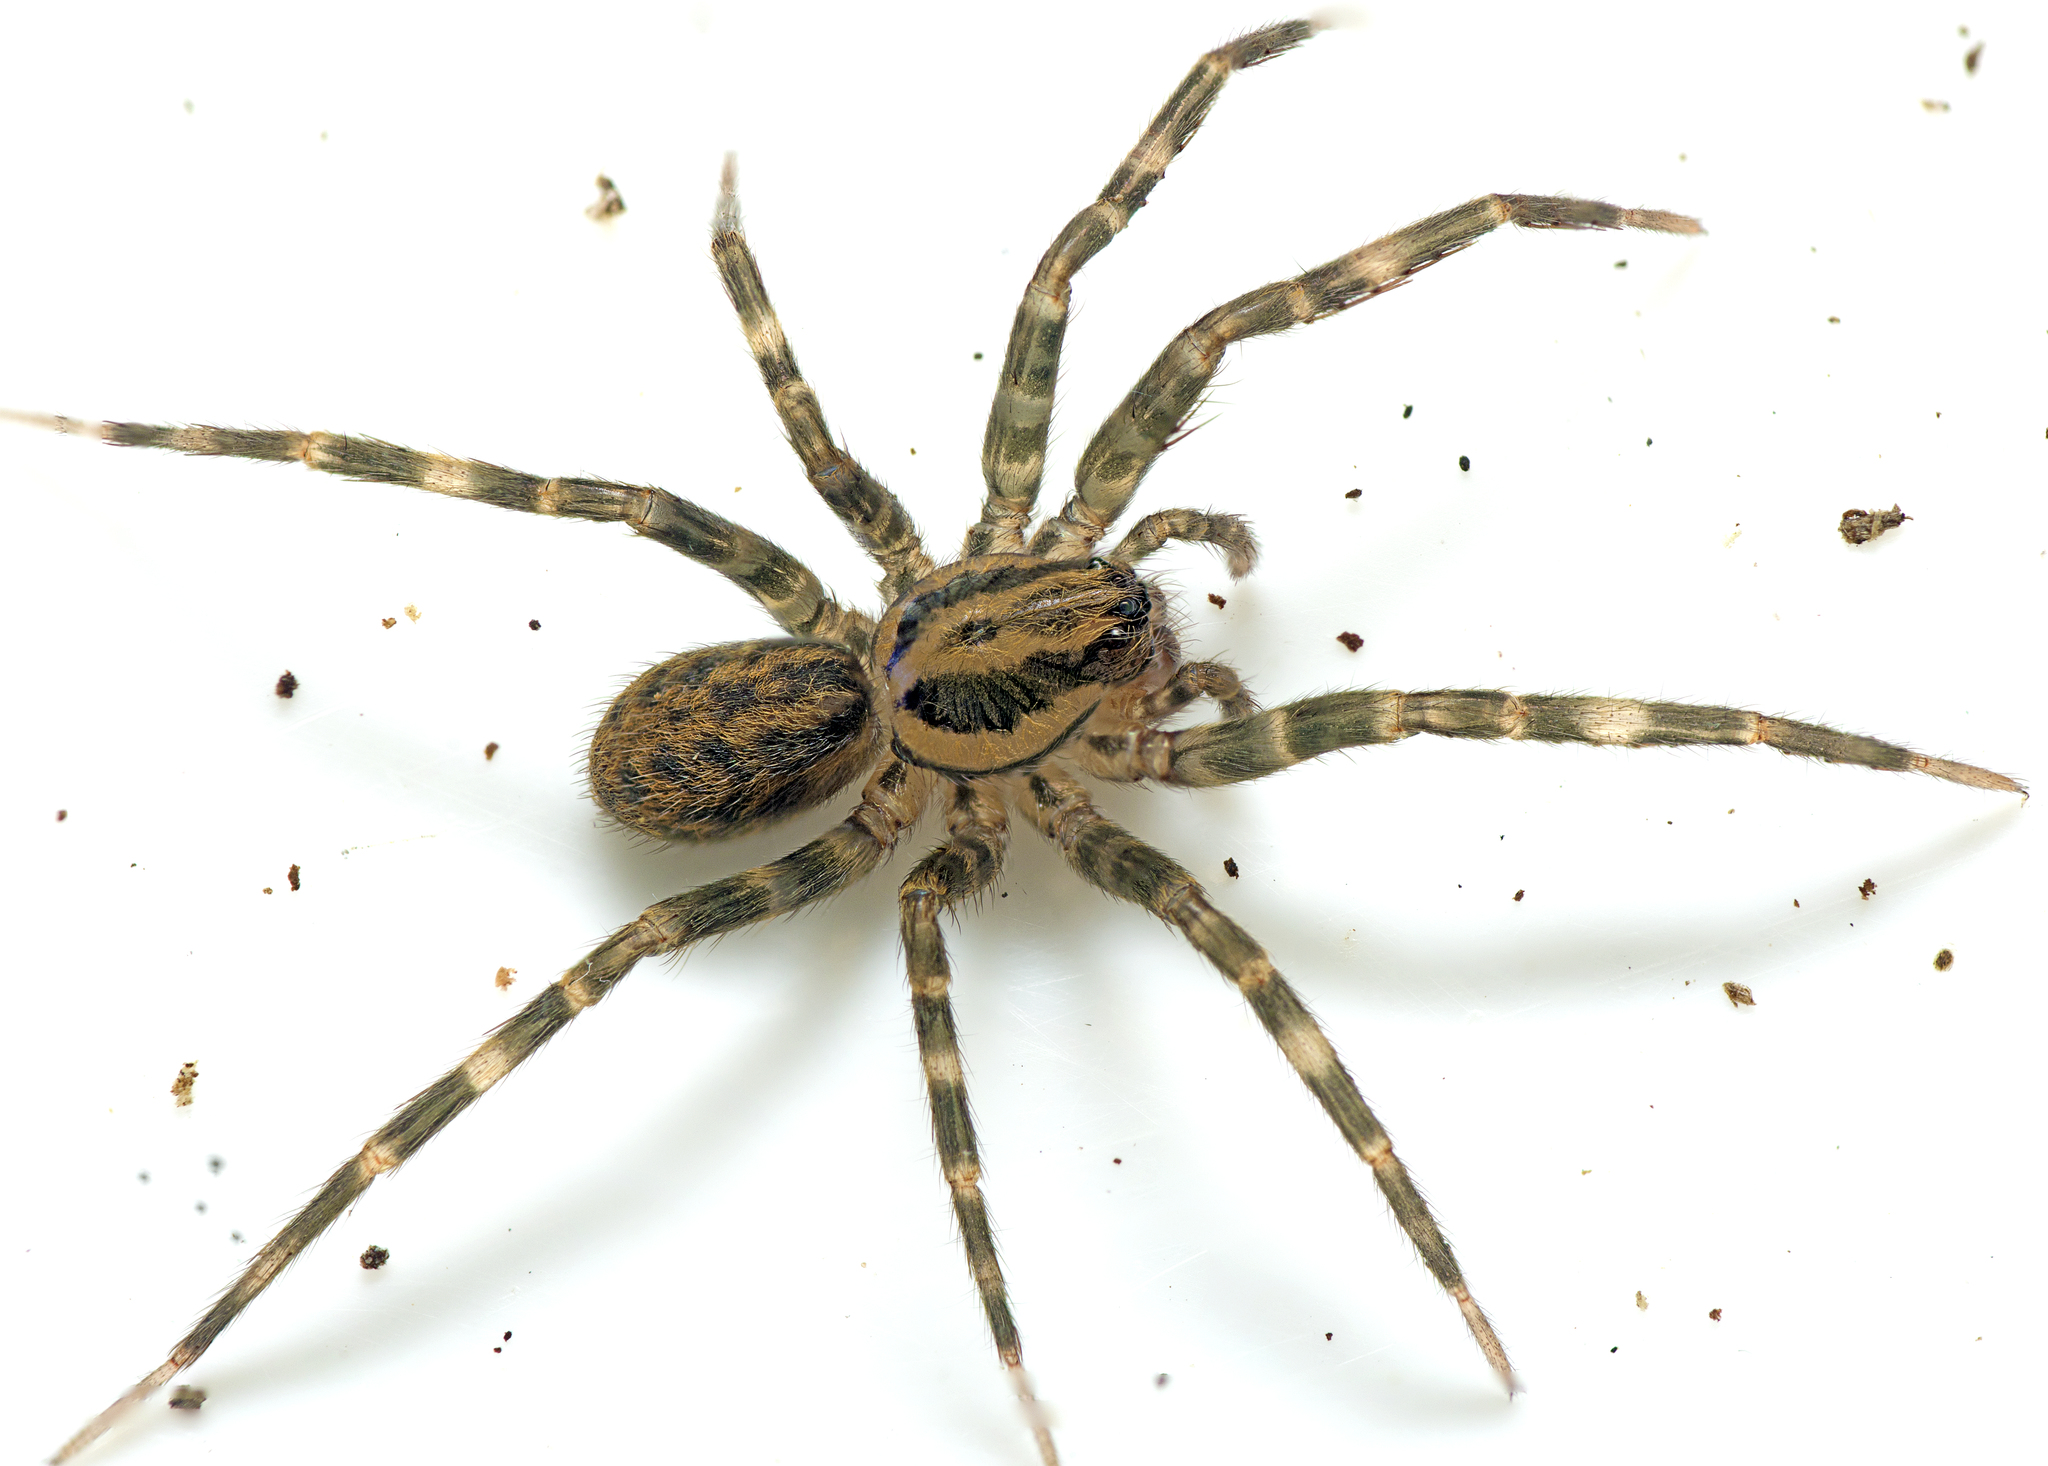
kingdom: Animalia
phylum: Arthropoda
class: Arachnida
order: Araneae
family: Zoropsidae
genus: Austrotengella
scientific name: Austrotengella hackerae
